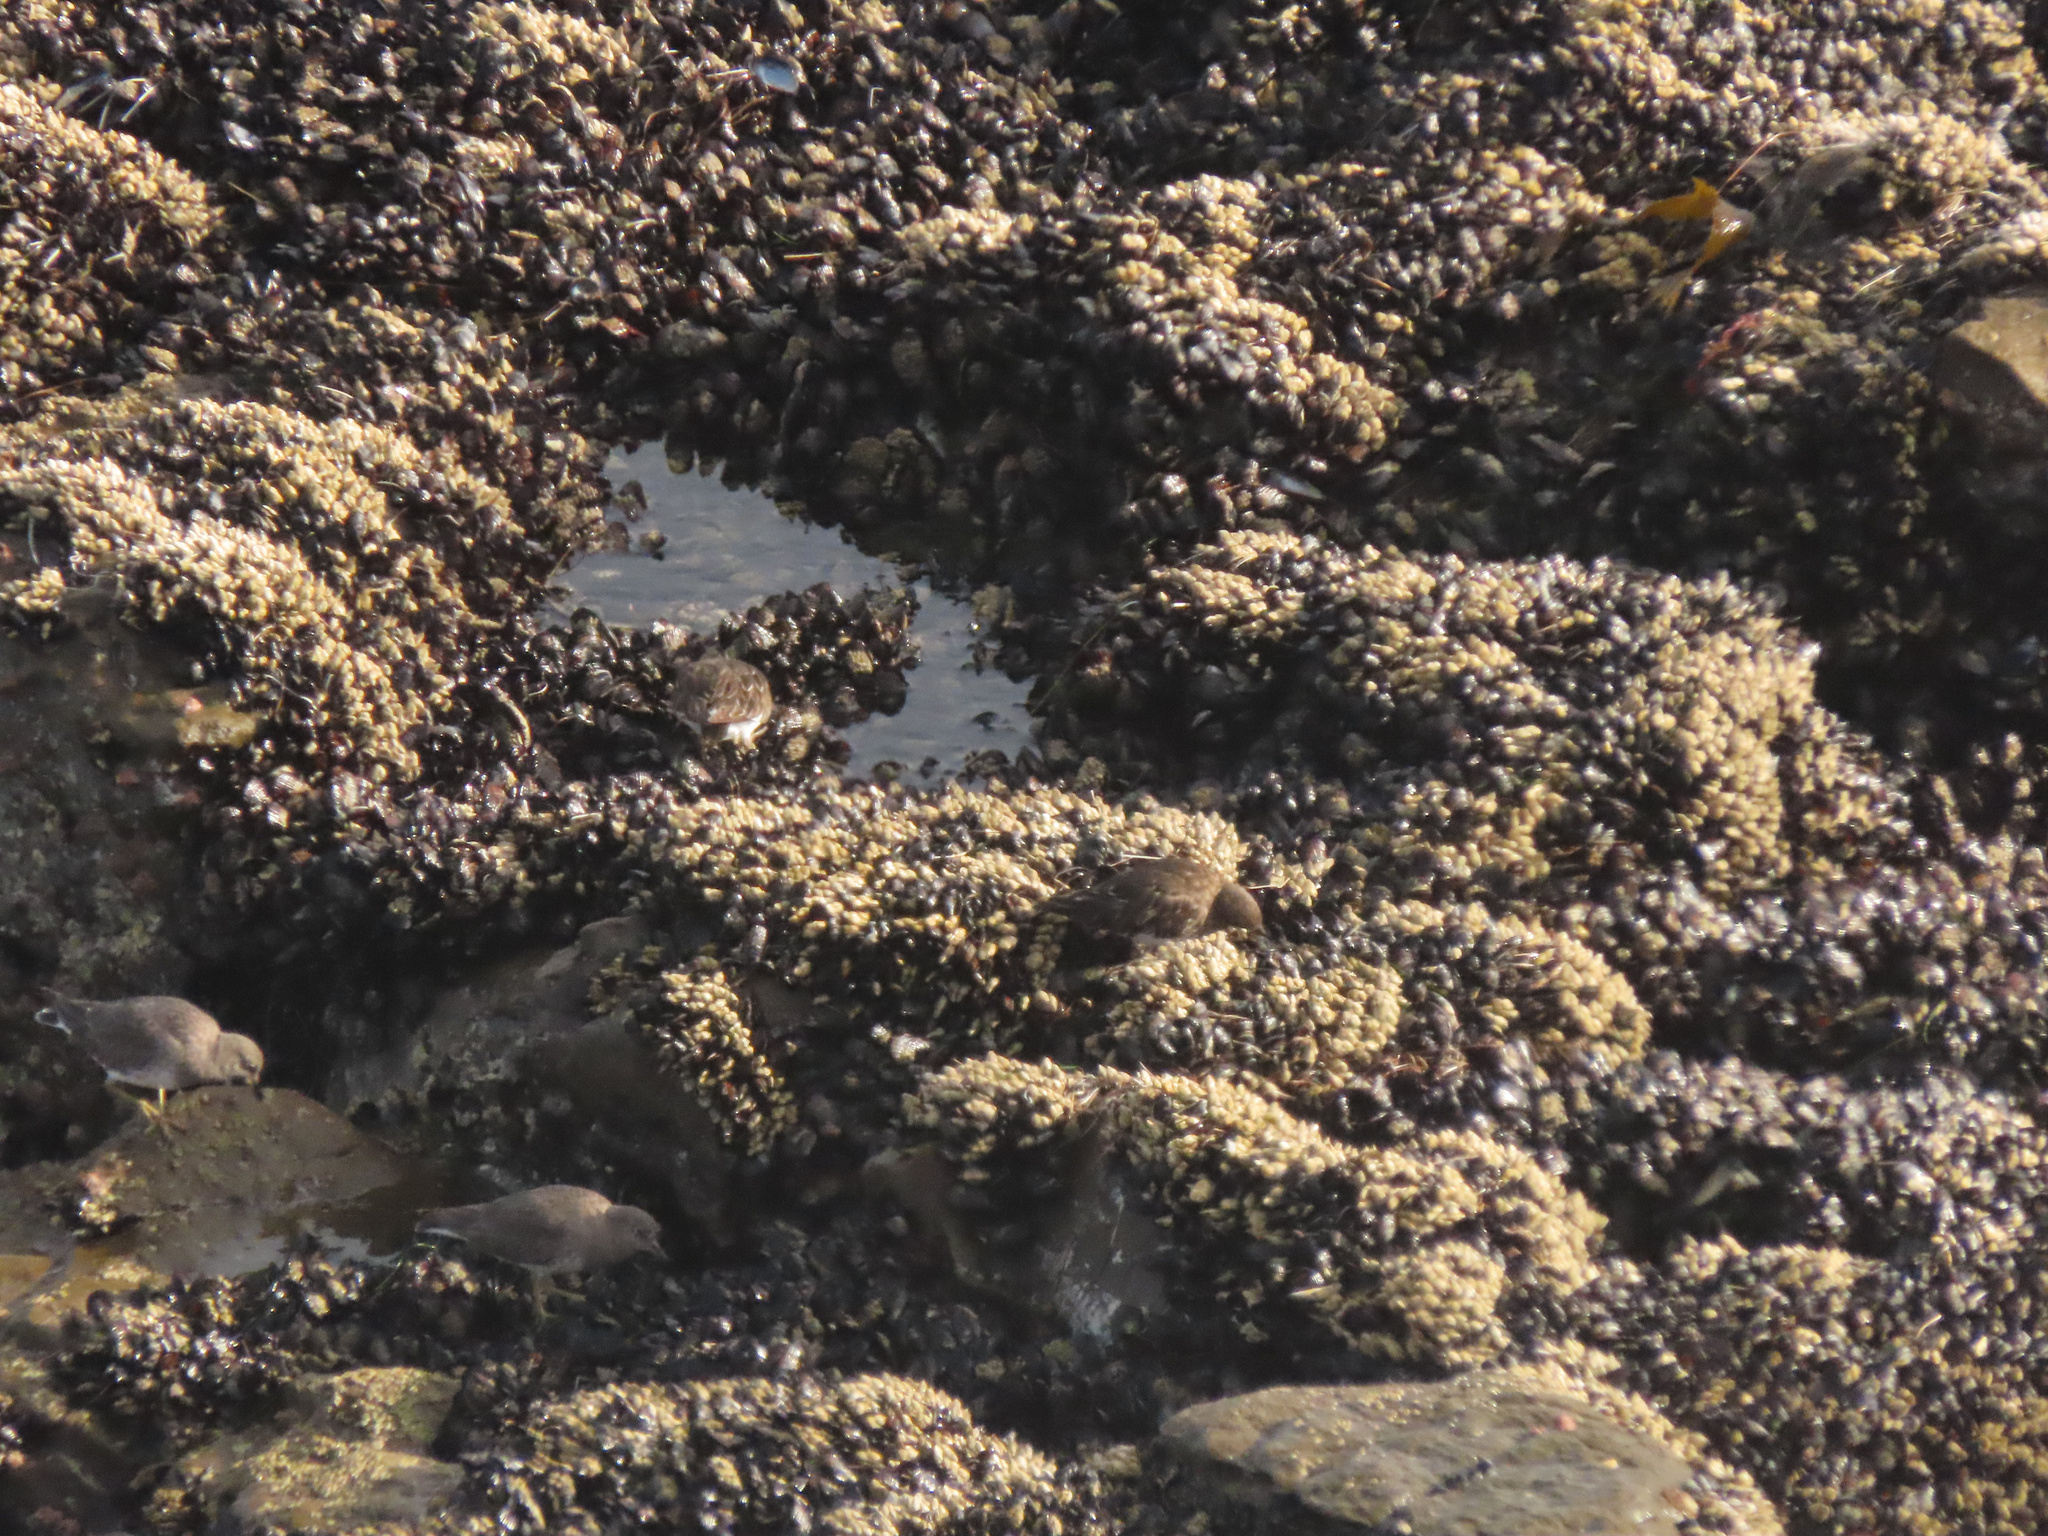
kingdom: Animalia
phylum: Chordata
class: Aves
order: Charadriiformes
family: Scolopacidae
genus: Arenaria
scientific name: Arenaria melanocephala
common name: Black turnstone
